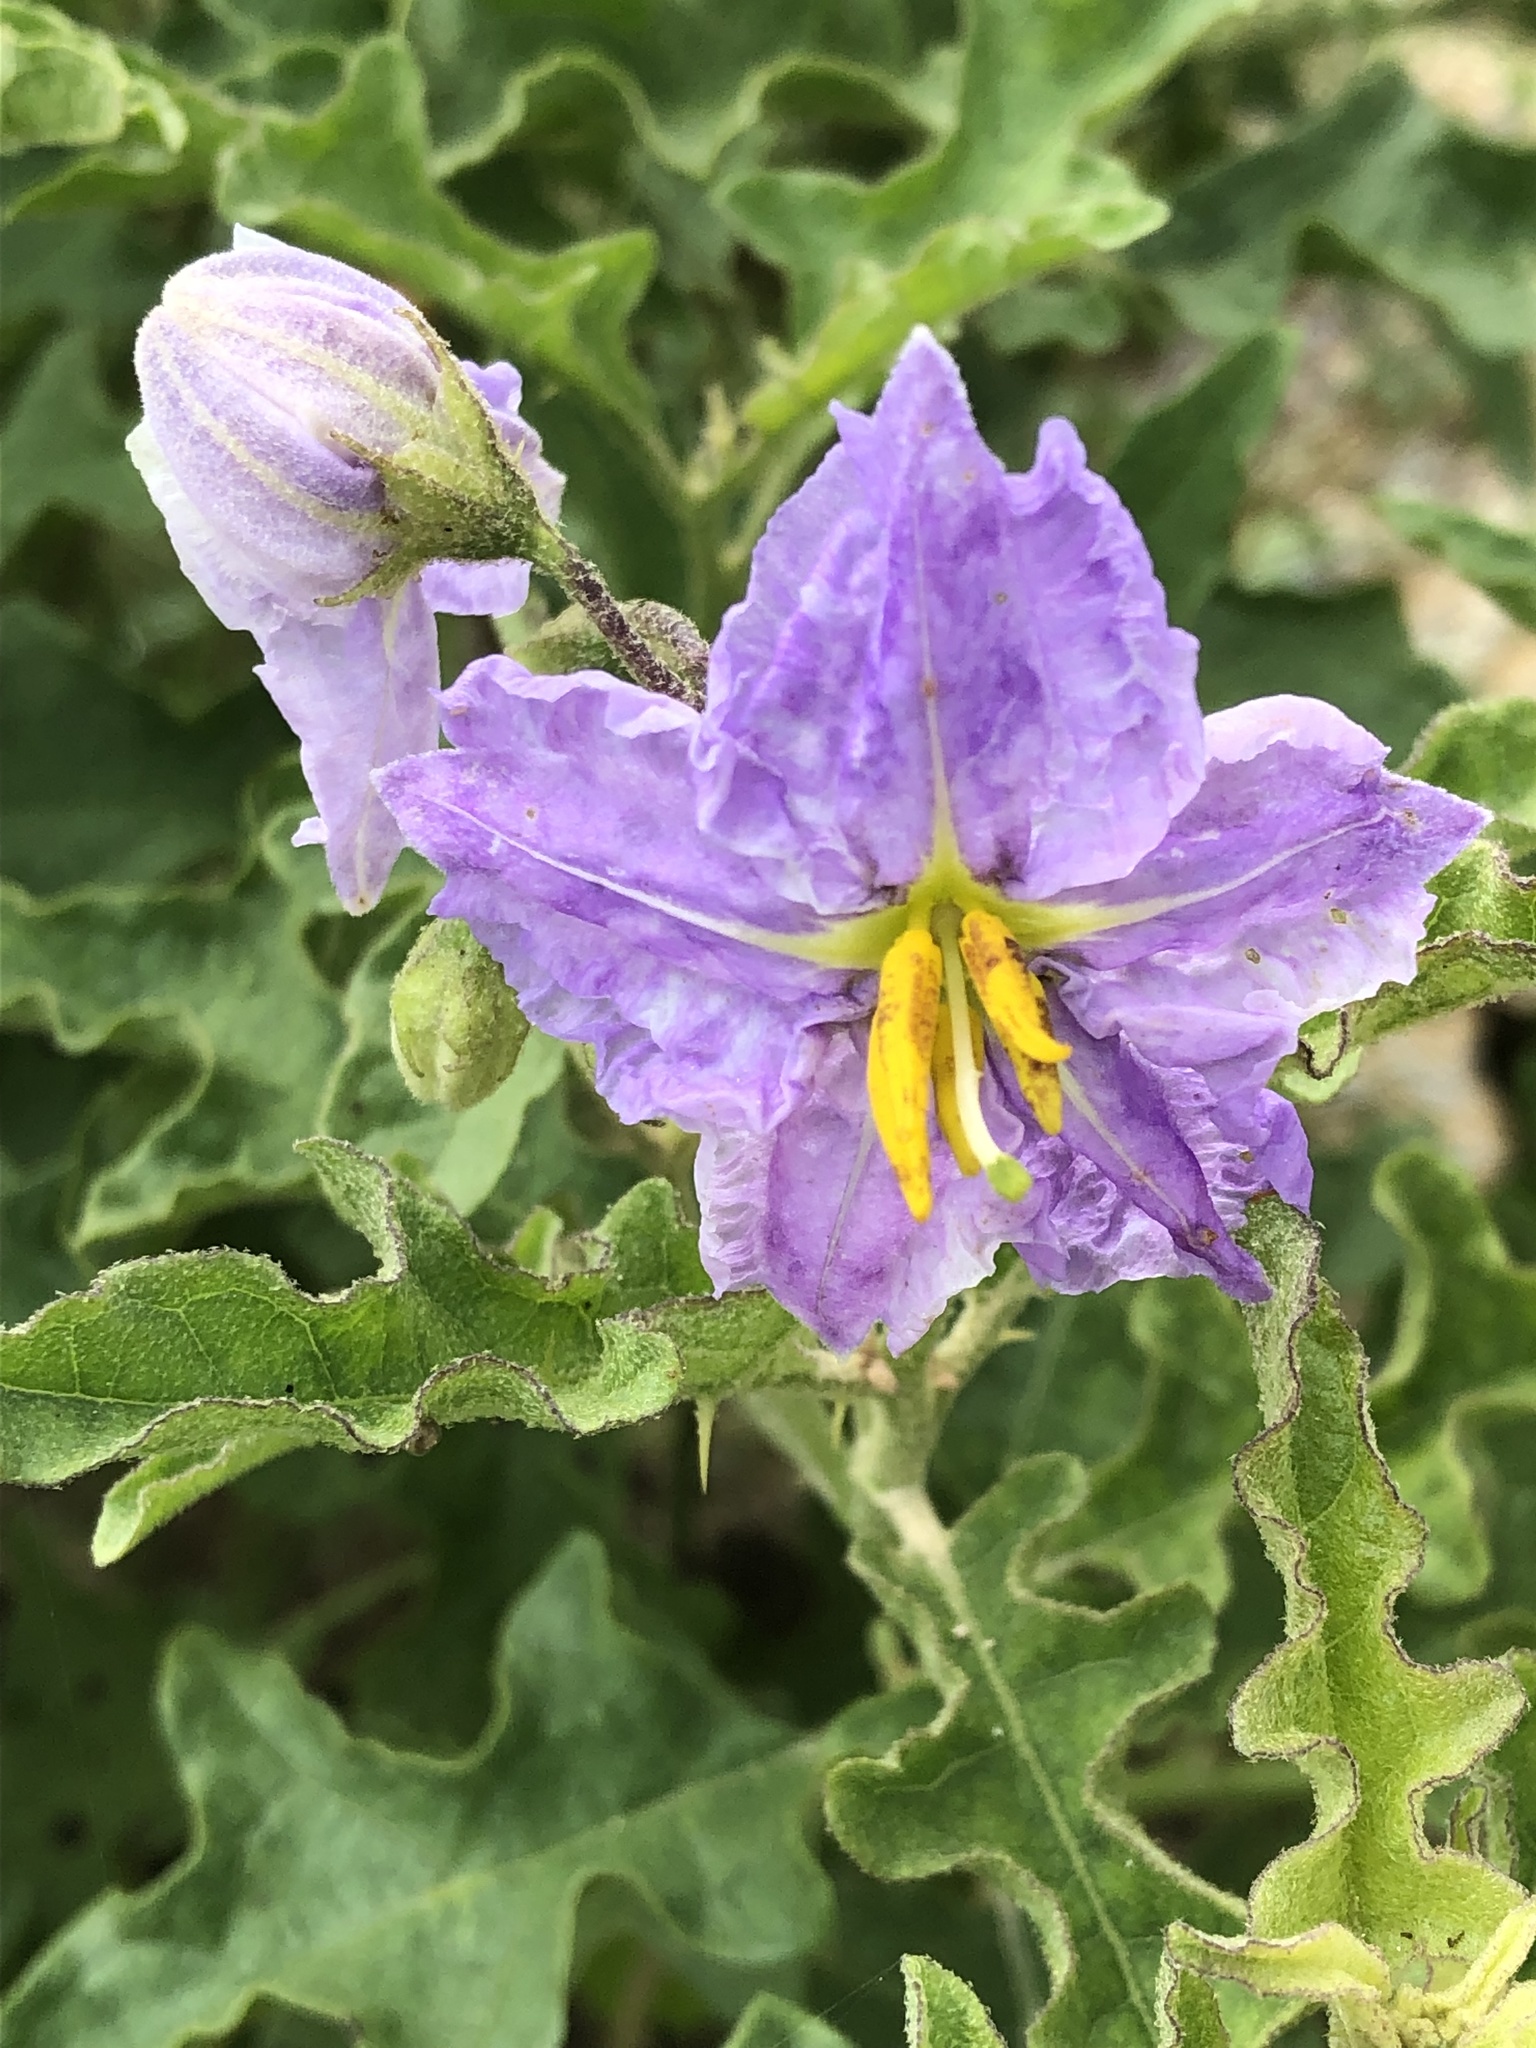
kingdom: Plantae
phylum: Tracheophyta
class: Magnoliopsida
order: Solanales
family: Solanaceae
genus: Solanum
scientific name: Solanum dimidiatum
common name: Carolina horse-nettle
